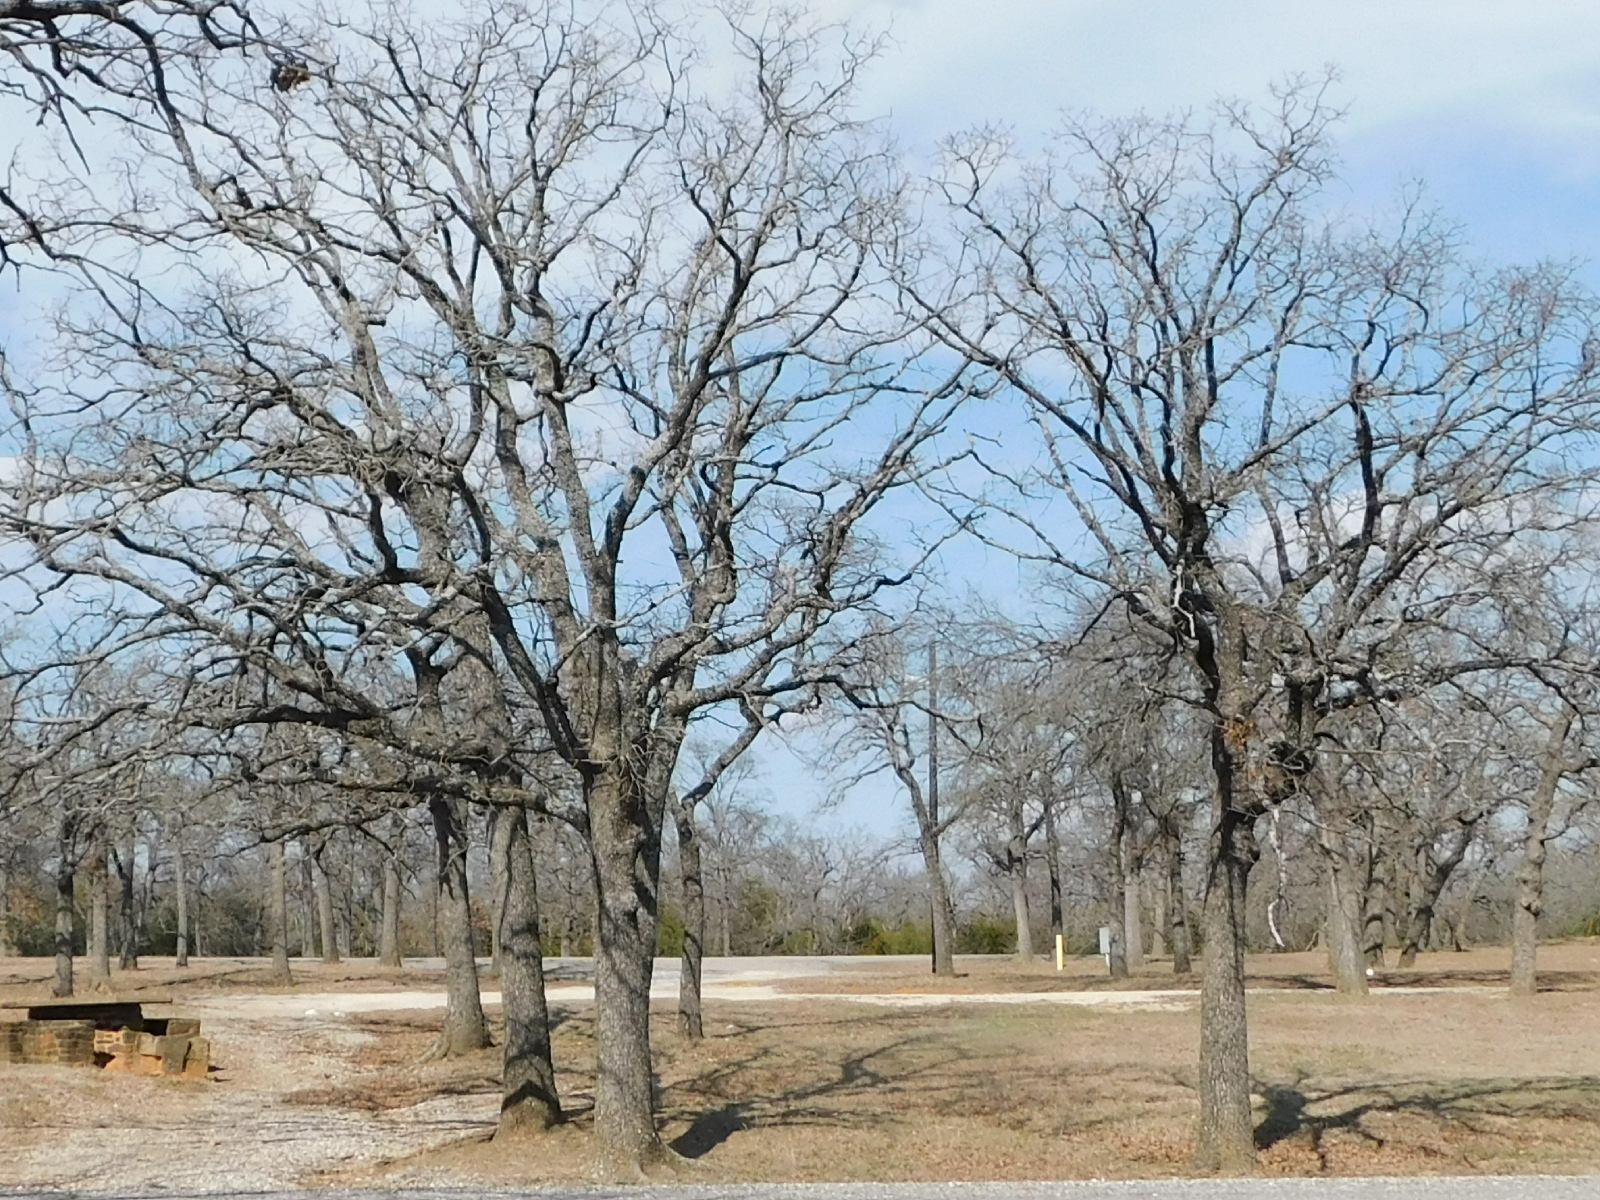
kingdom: Plantae
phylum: Tracheophyta
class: Magnoliopsida
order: Fagales
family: Fagaceae
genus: Quercus
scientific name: Quercus stellata
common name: Post oak
